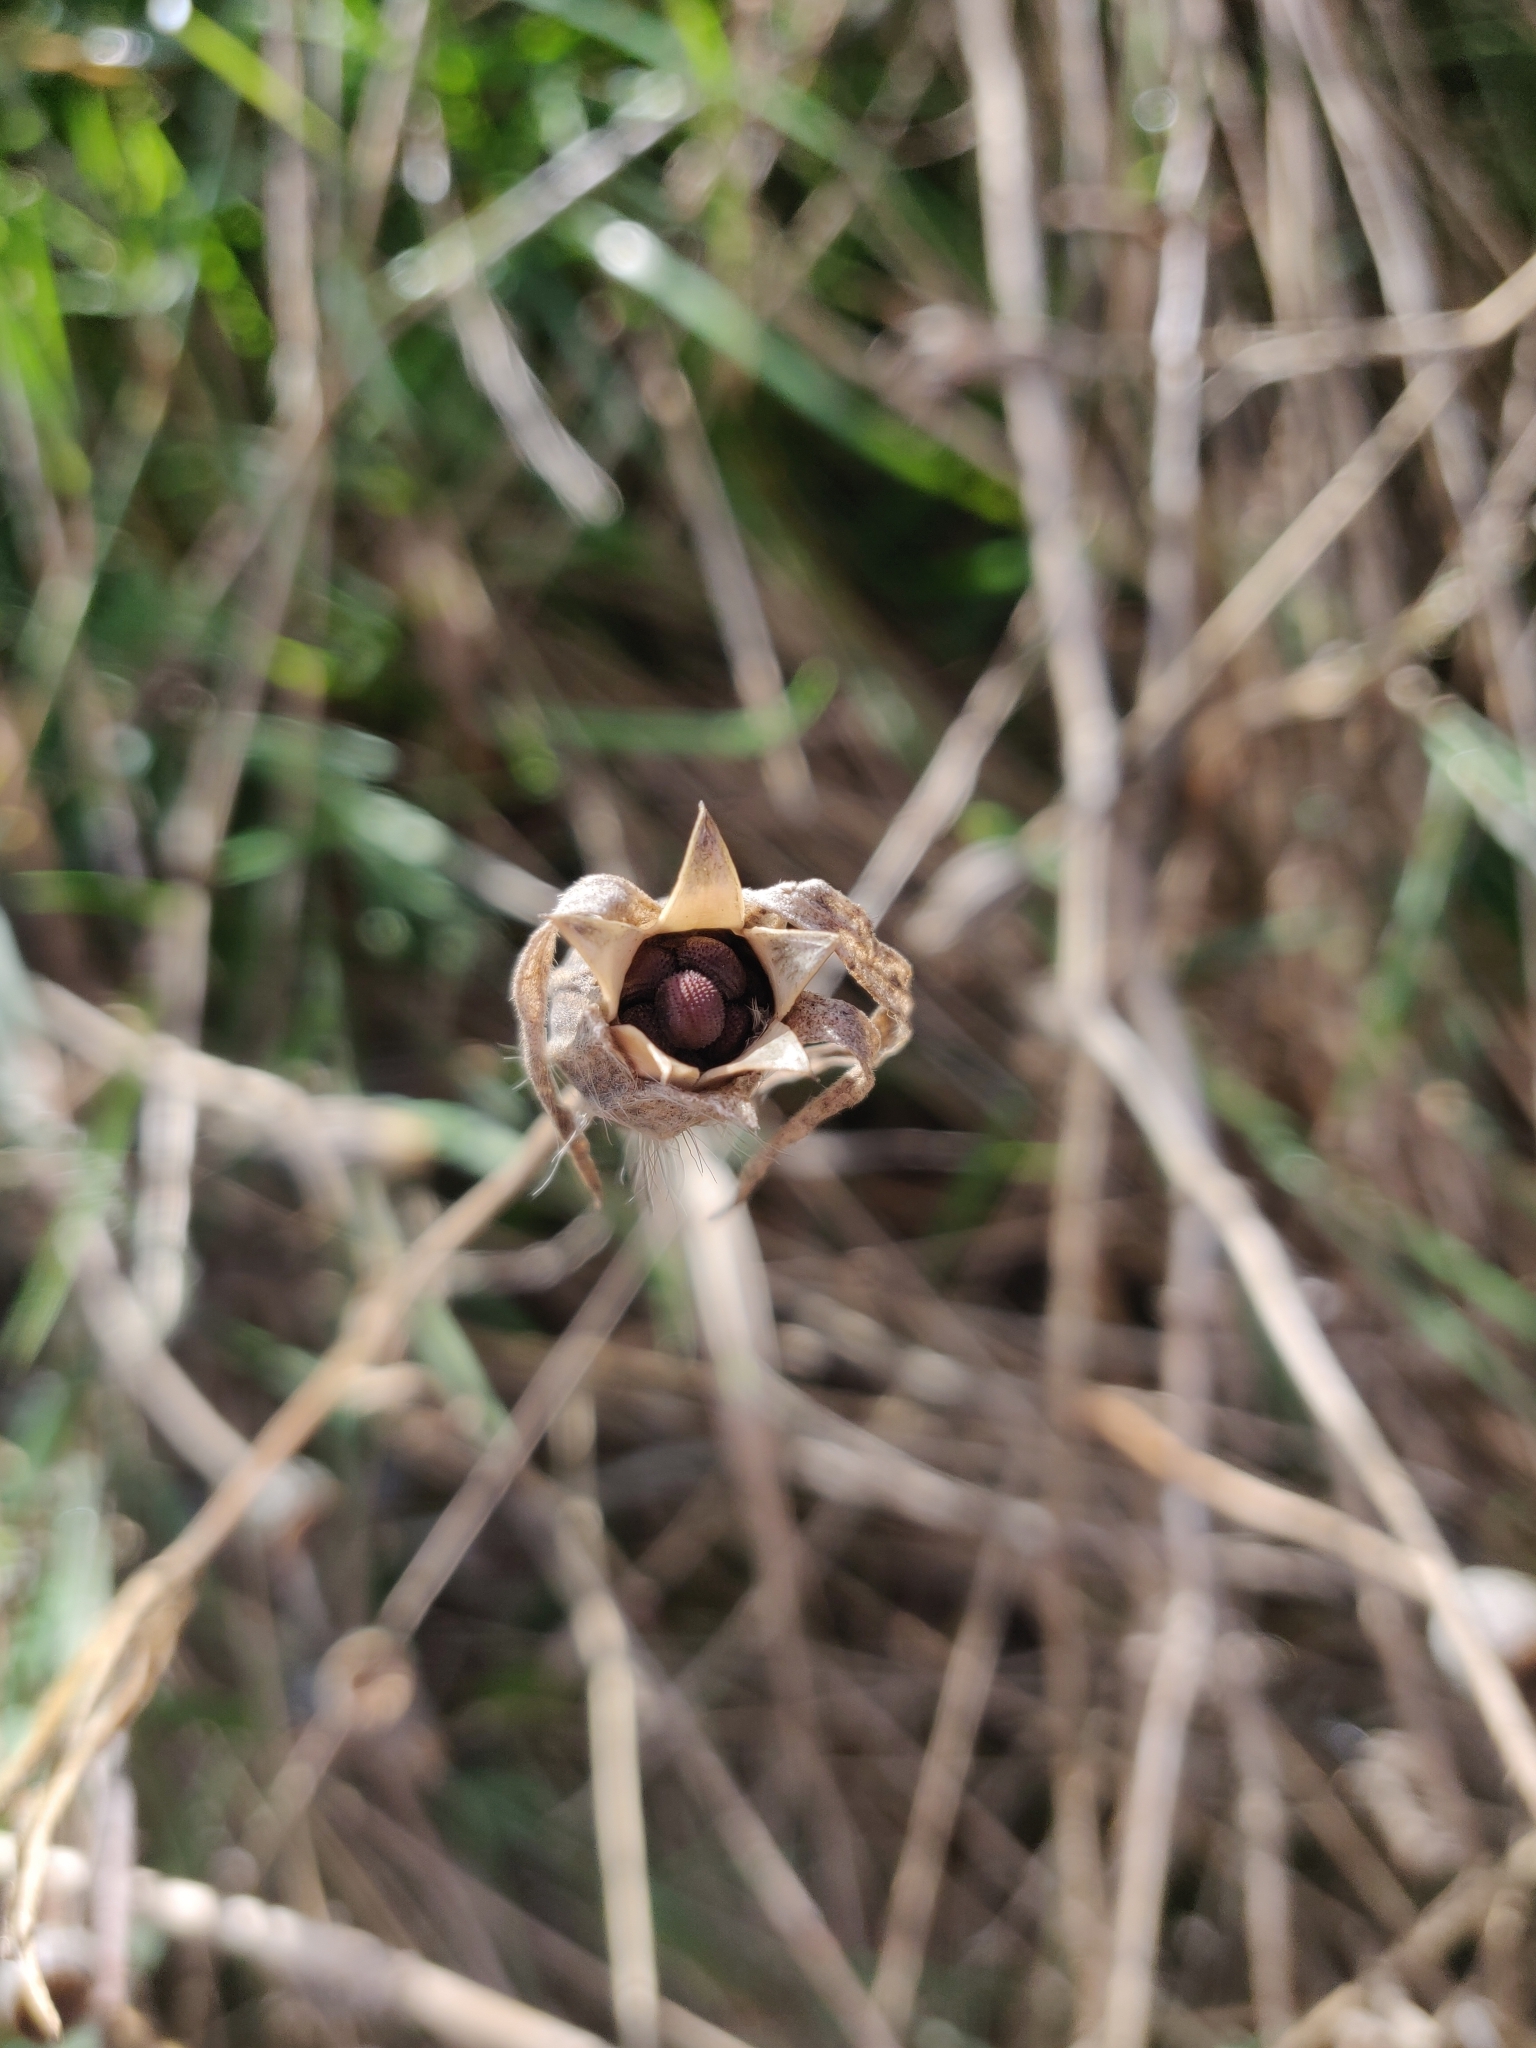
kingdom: Plantae
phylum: Tracheophyta
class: Magnoliopsida
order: Caryophyllales
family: Caryophyllaceae
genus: Agrostemma
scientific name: Agrostemma githago
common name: Common corncockle
